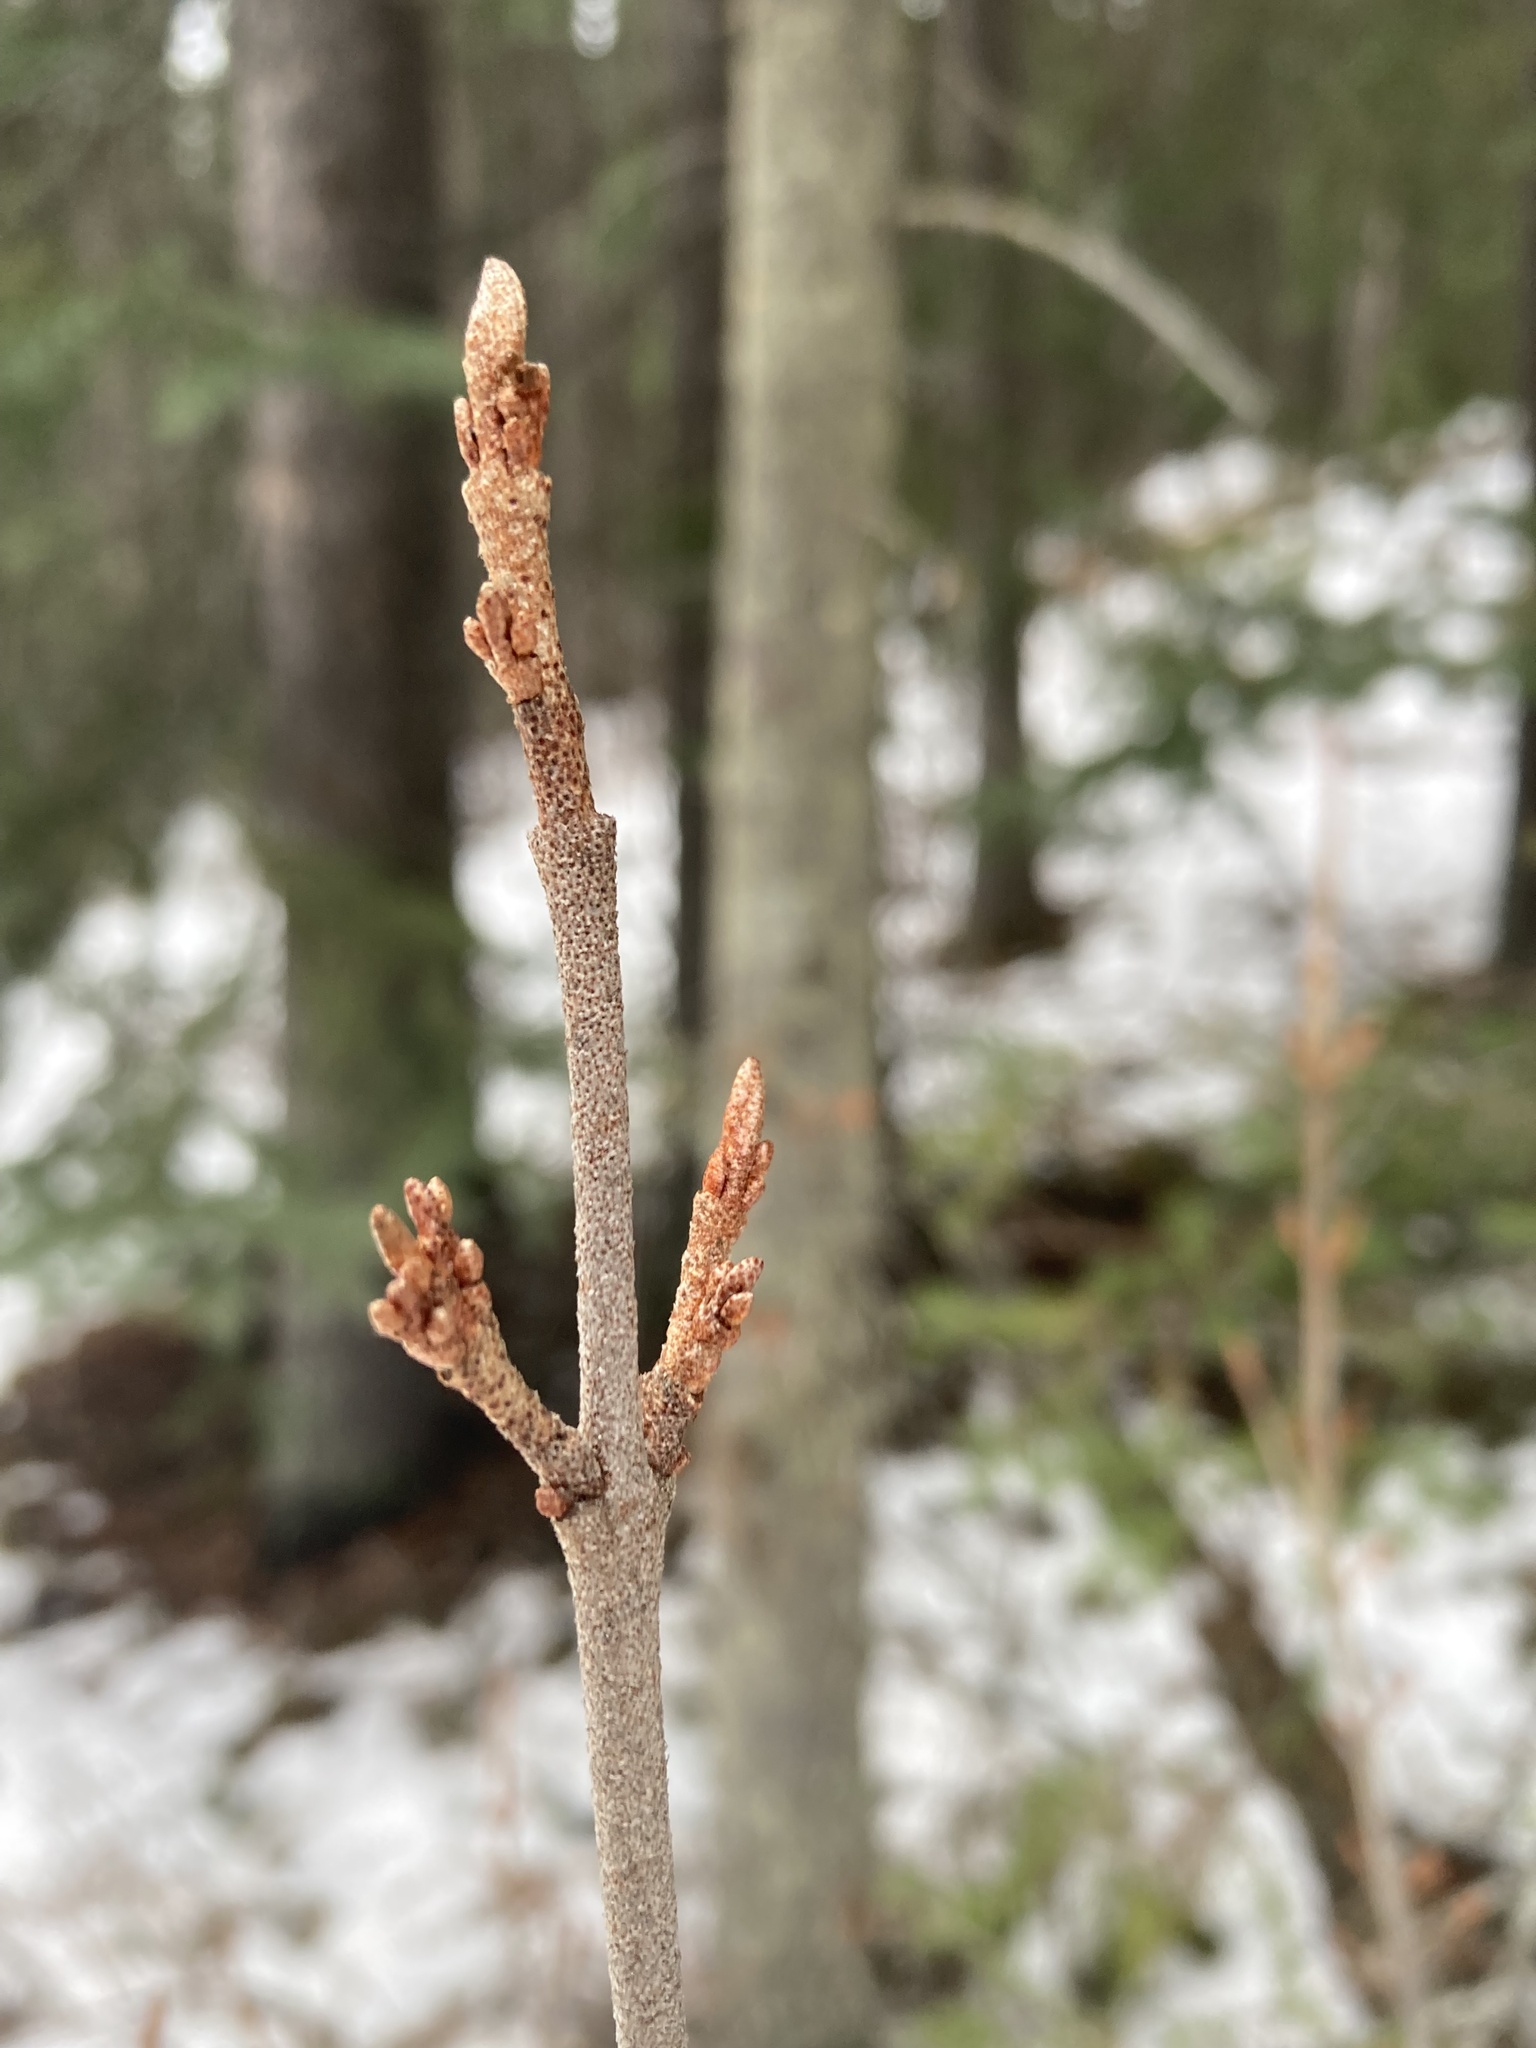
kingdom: Plantae
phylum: Tracheophyta
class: Magnoliopsida
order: Rosales
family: Elaeagnaceae
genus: Shepherdia
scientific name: Shepherdia canadensis
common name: Soapberry
